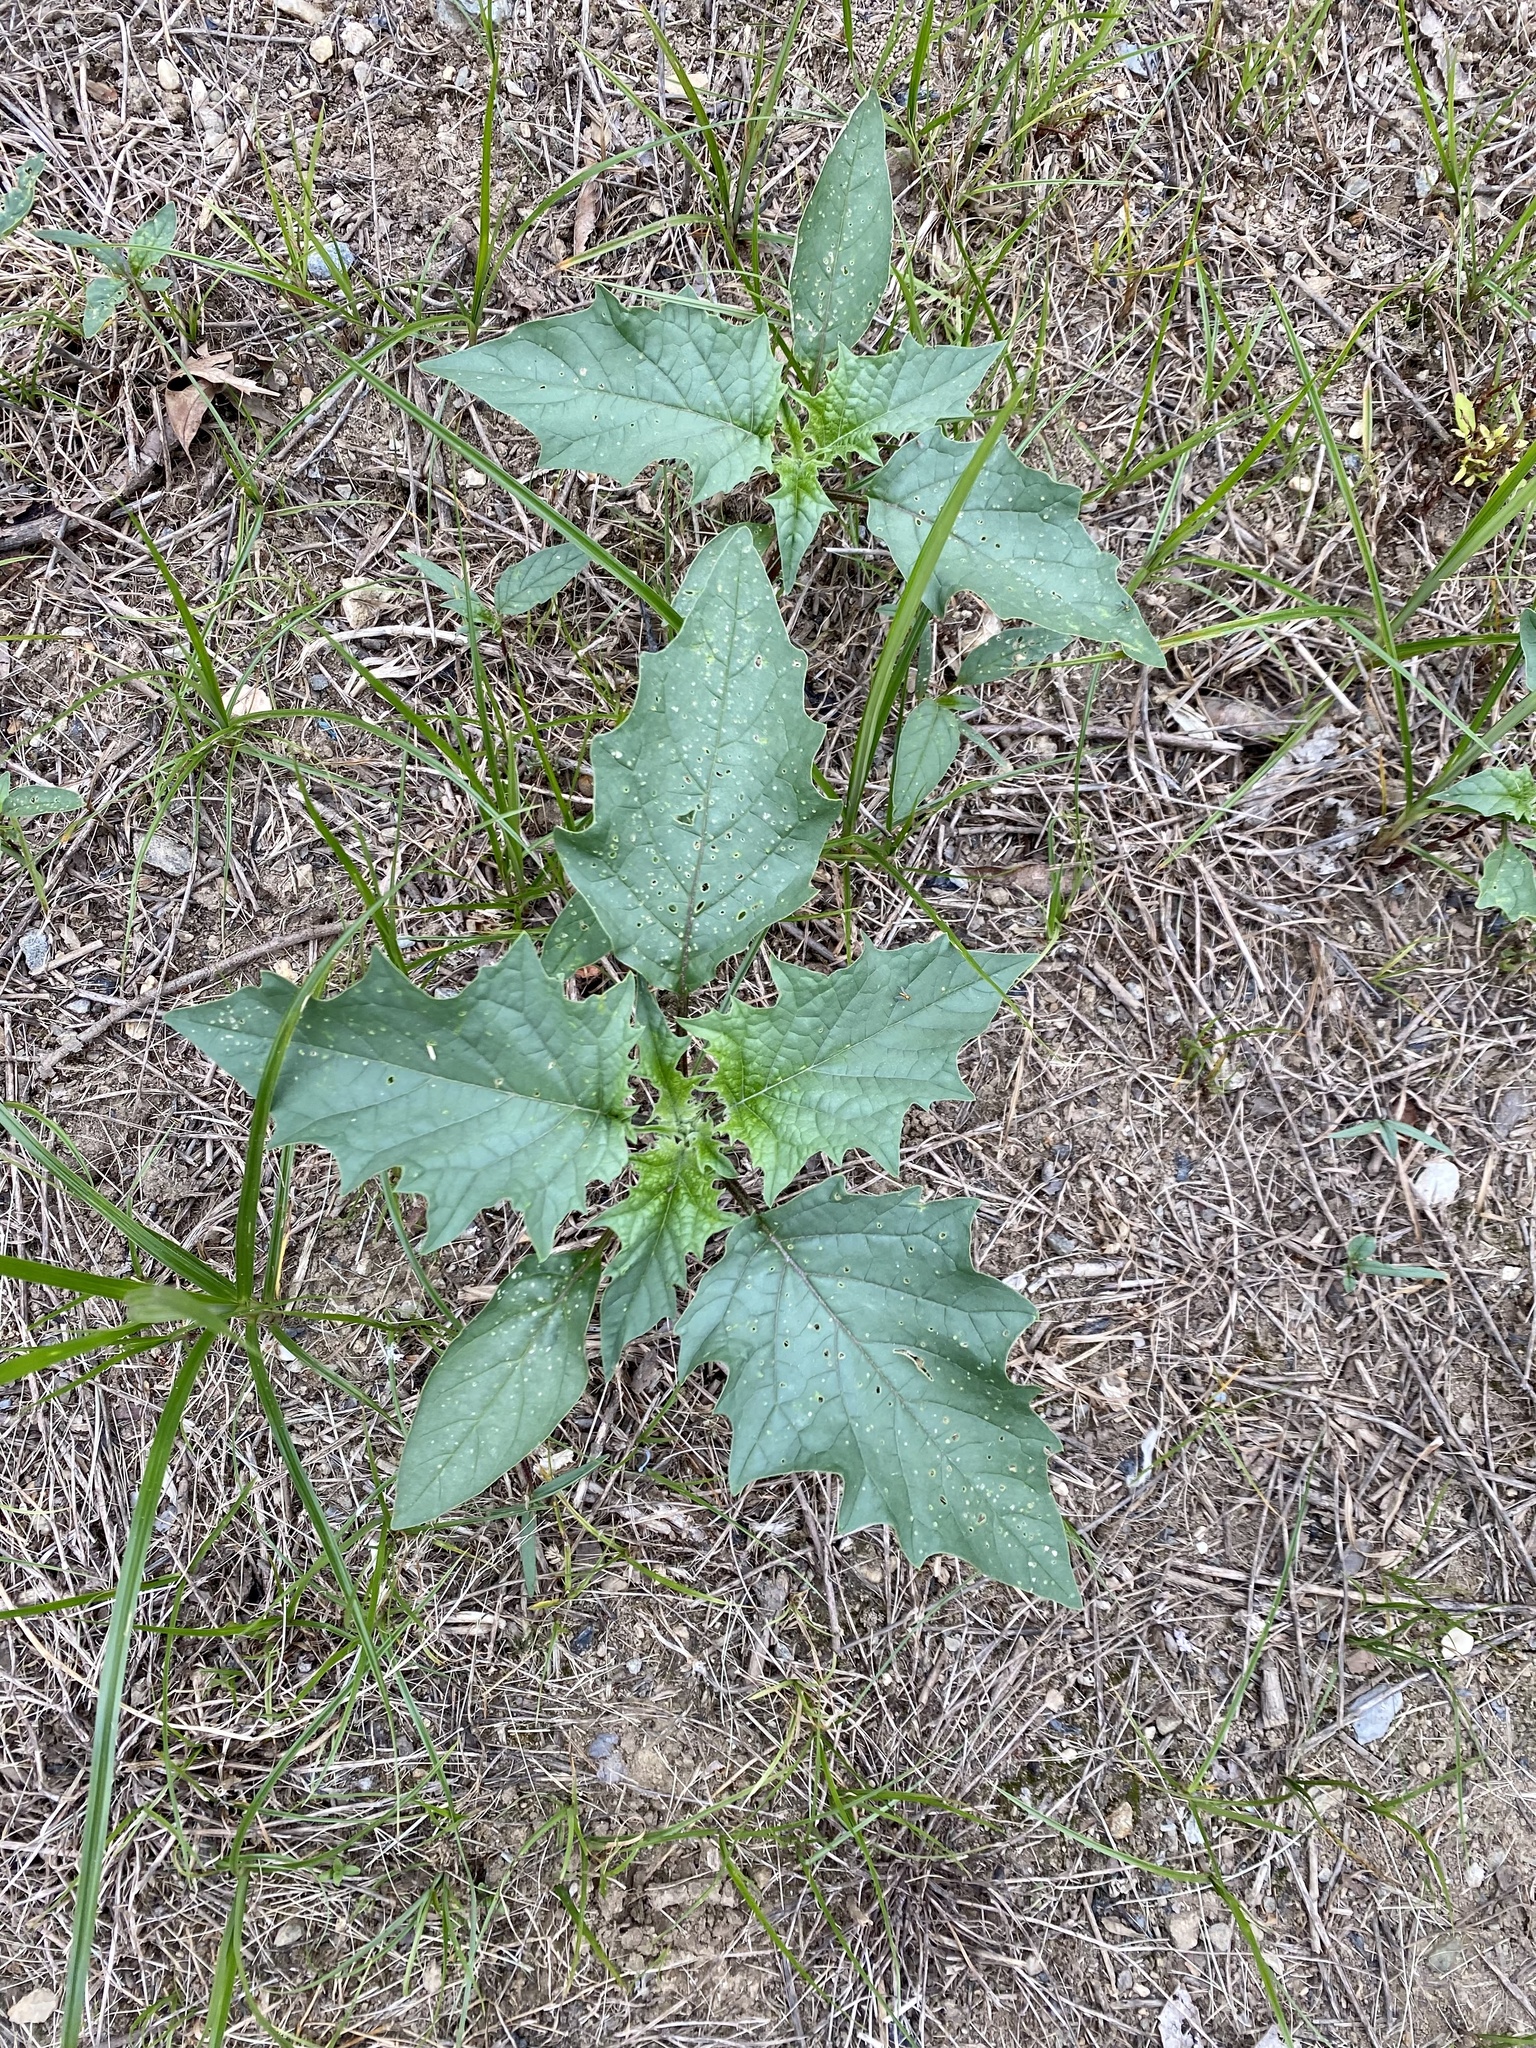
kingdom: Plantae
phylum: Tracheophyta
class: Magnoliopsida
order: Solanales
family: Solanaceae
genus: Datura
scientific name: Datura stramonium
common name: Thorn-apple
